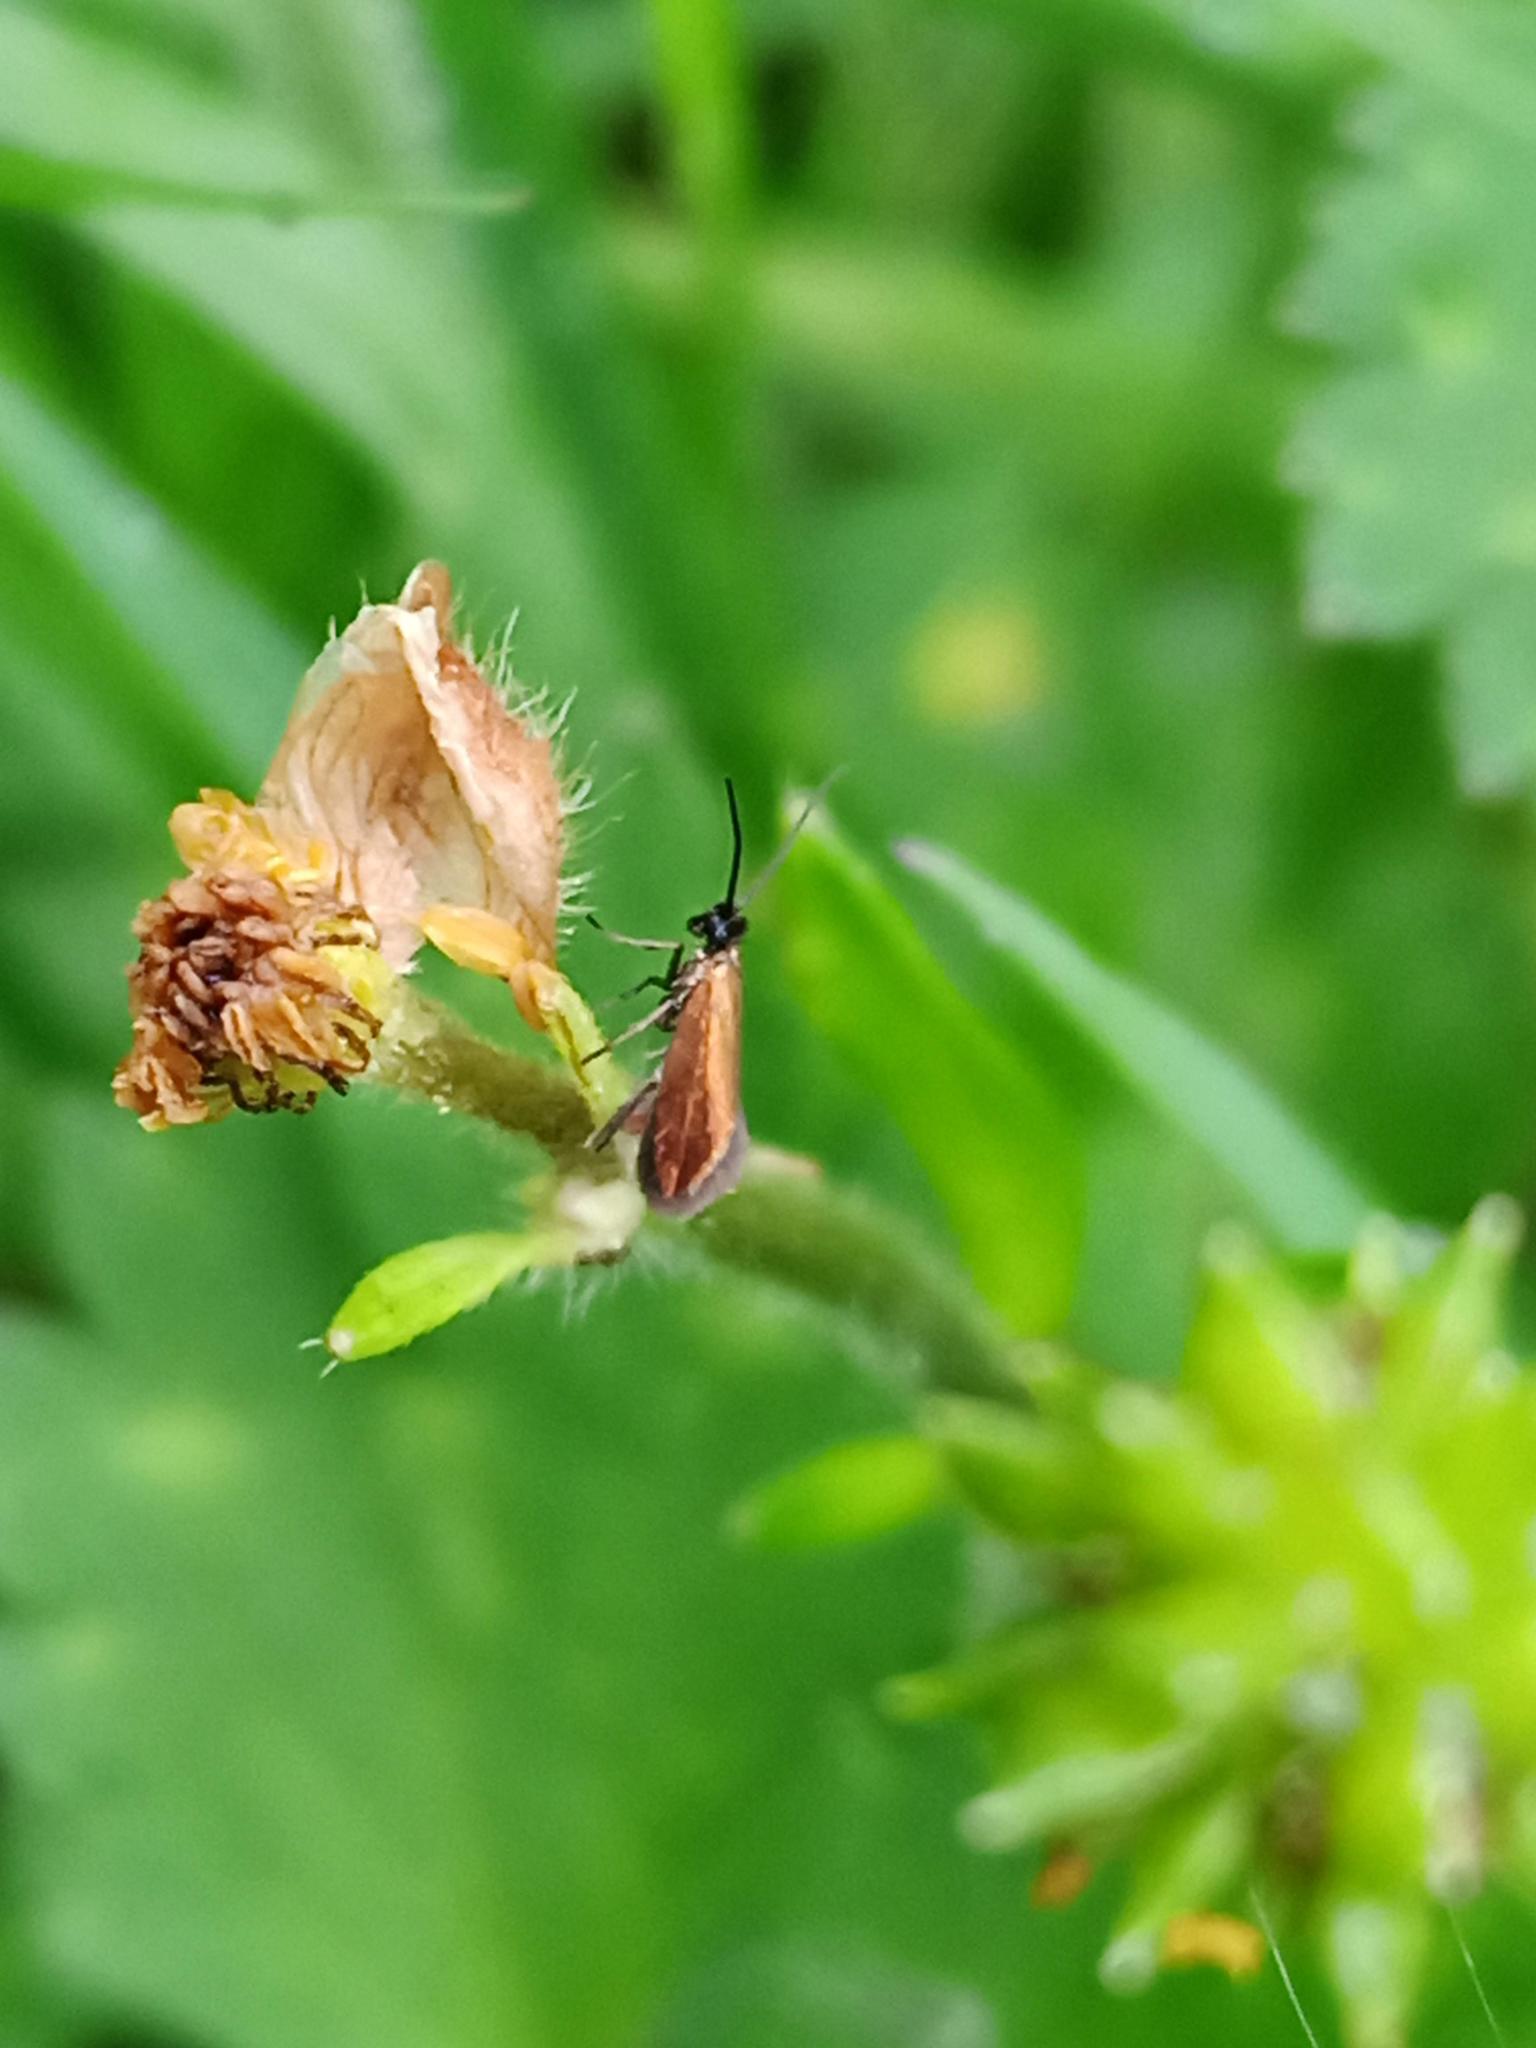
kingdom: Animalia
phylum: Arthropoda
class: Insecta
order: Lepidoptera
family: Micropterigidae
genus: Micropterix
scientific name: Micropterix herminiella
